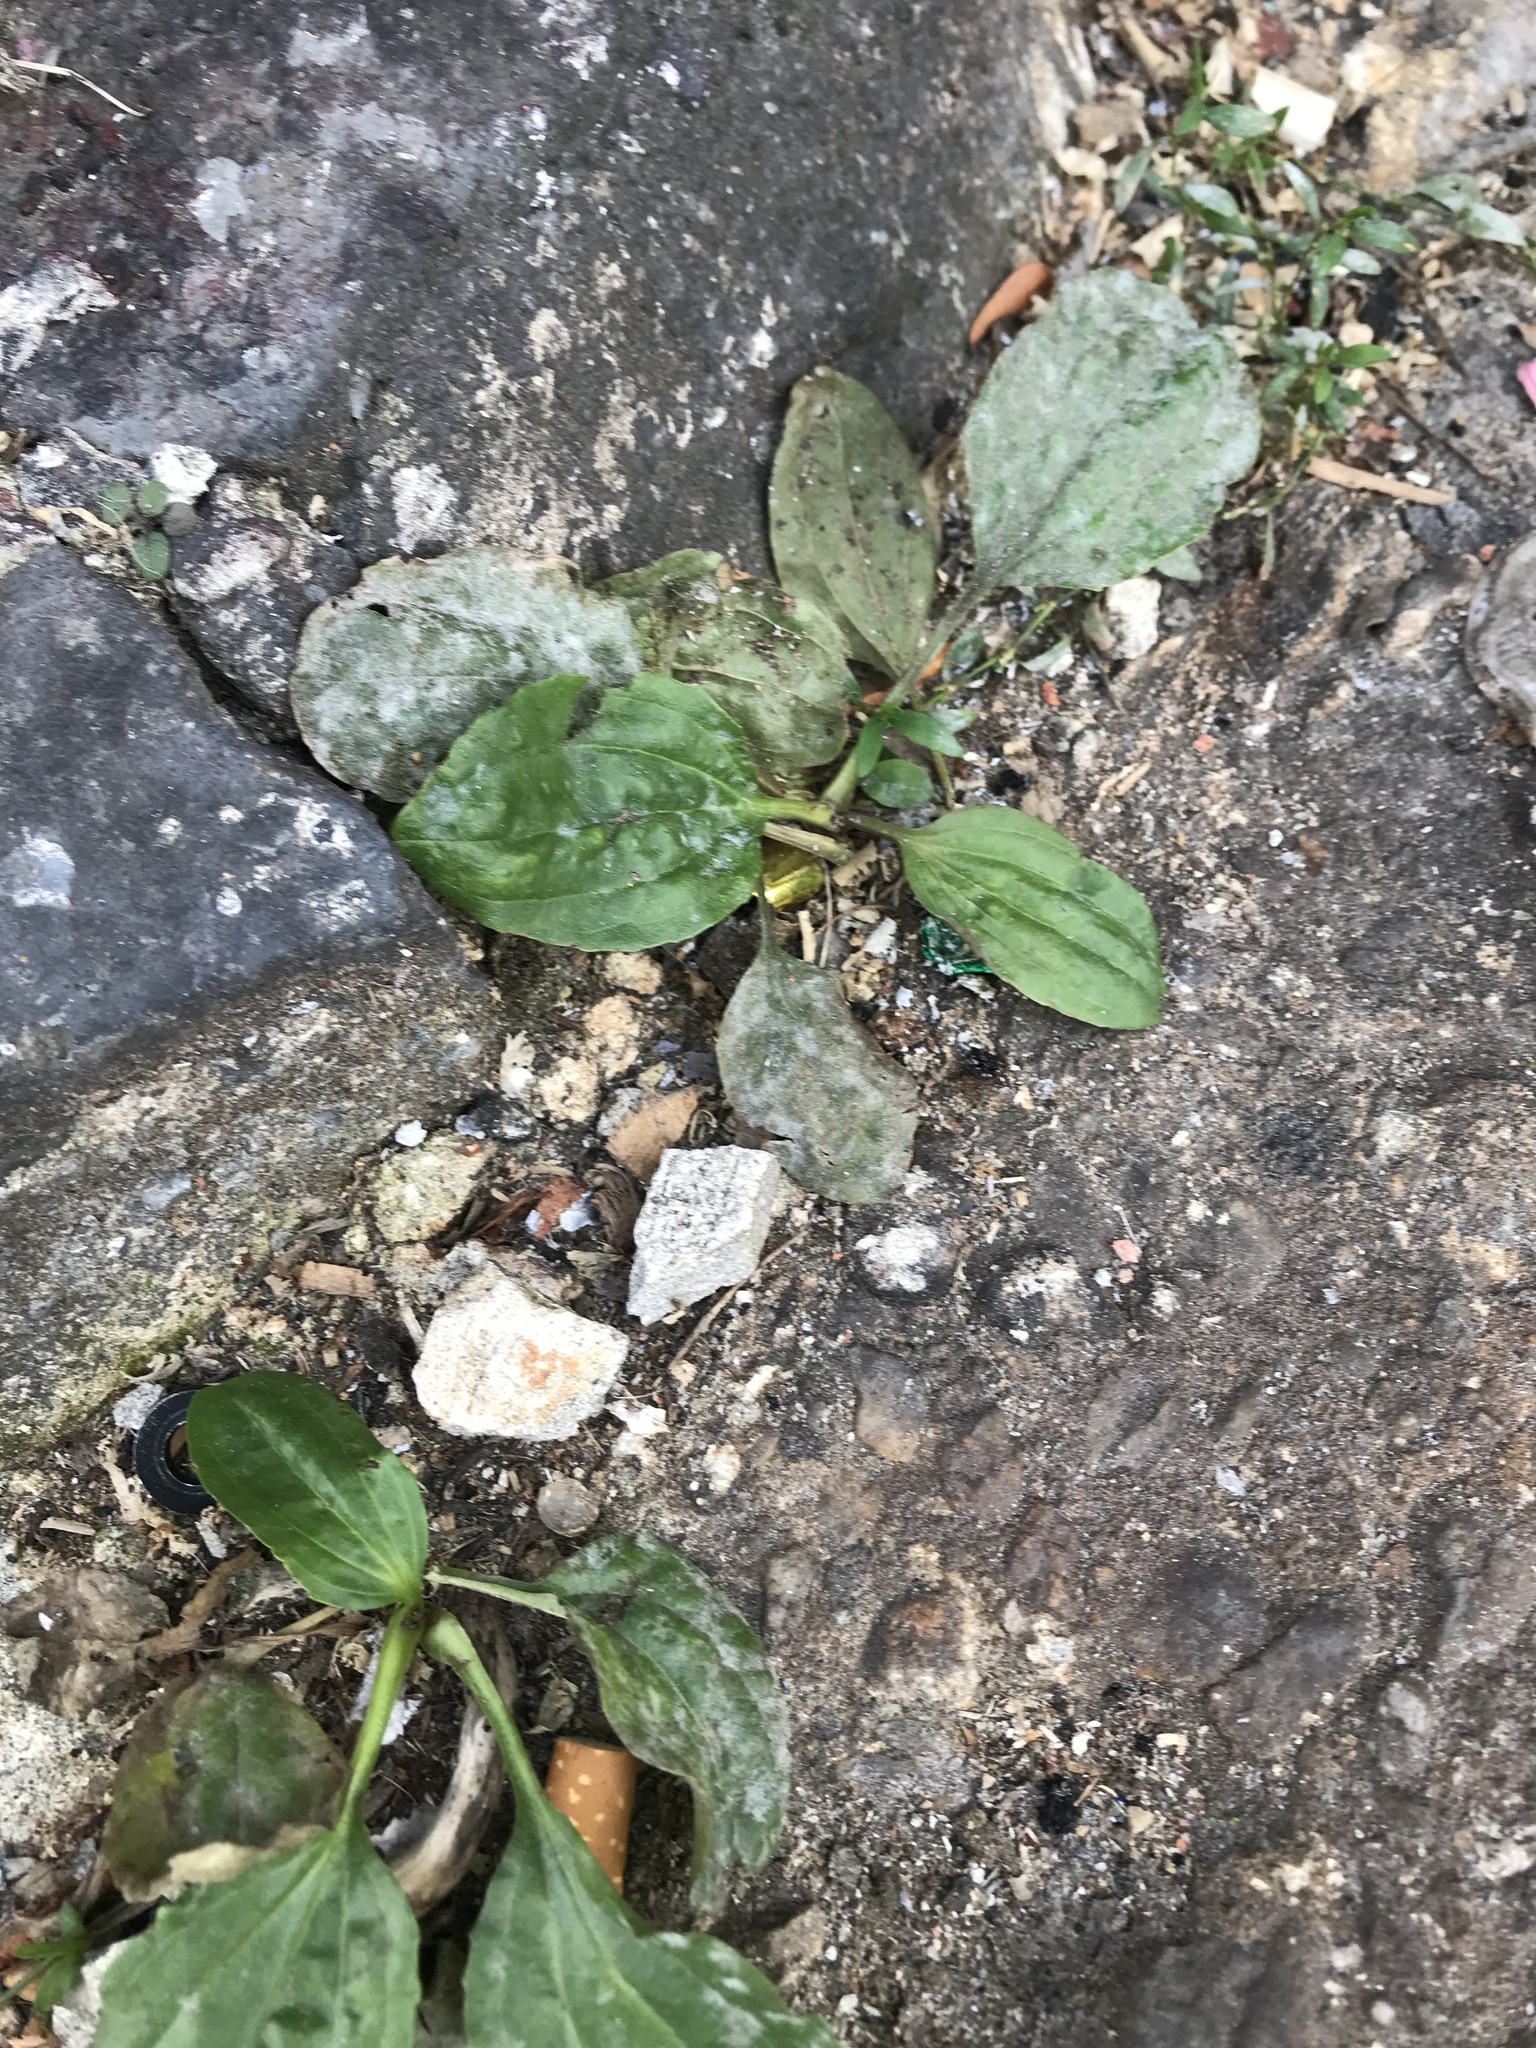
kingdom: Plantae
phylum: Tracheophyta
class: Magnoliopsida
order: Lamiales
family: Plantaginaceae
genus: Plantago
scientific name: Plantago major
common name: Common plantain
